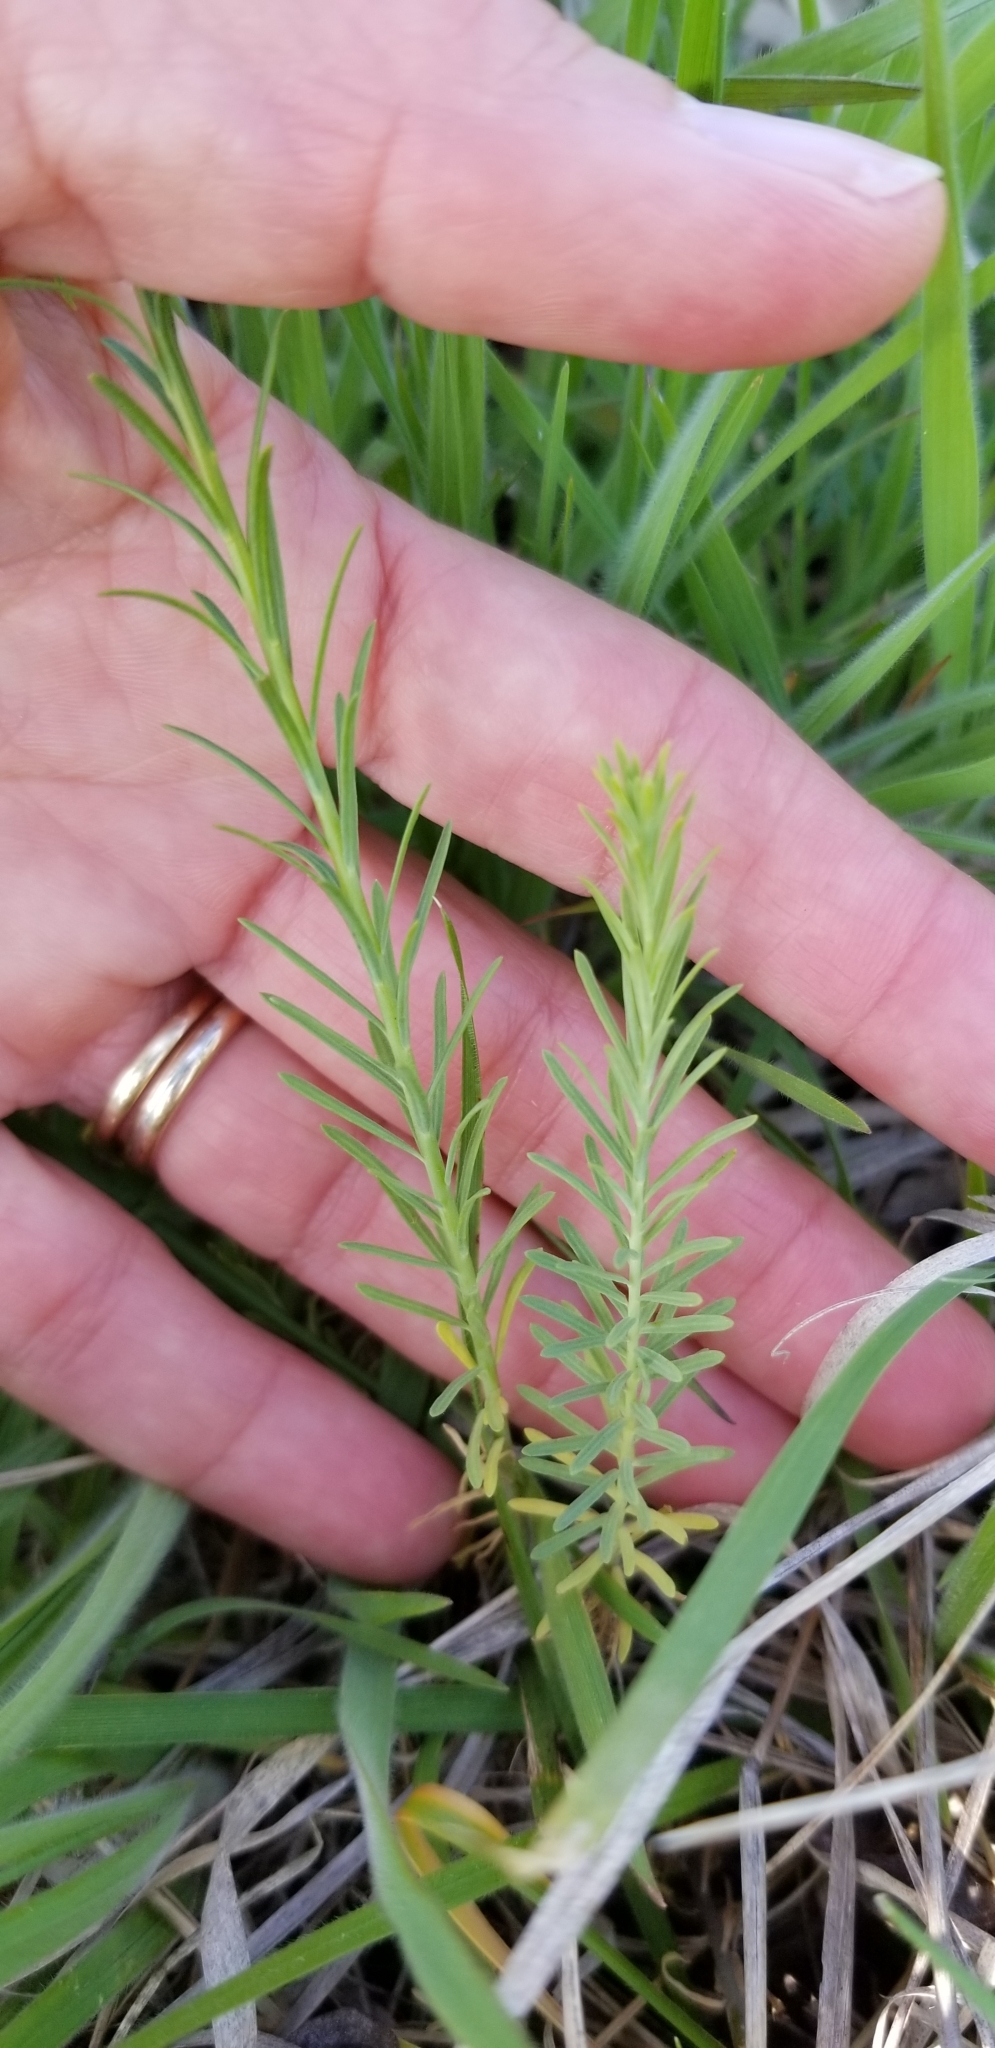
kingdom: Plantae
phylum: Tracheophyta
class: Magnoliopsida
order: Malpighiales
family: Linaceae
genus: Linum
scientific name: Linum pratense
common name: Norton's flax
